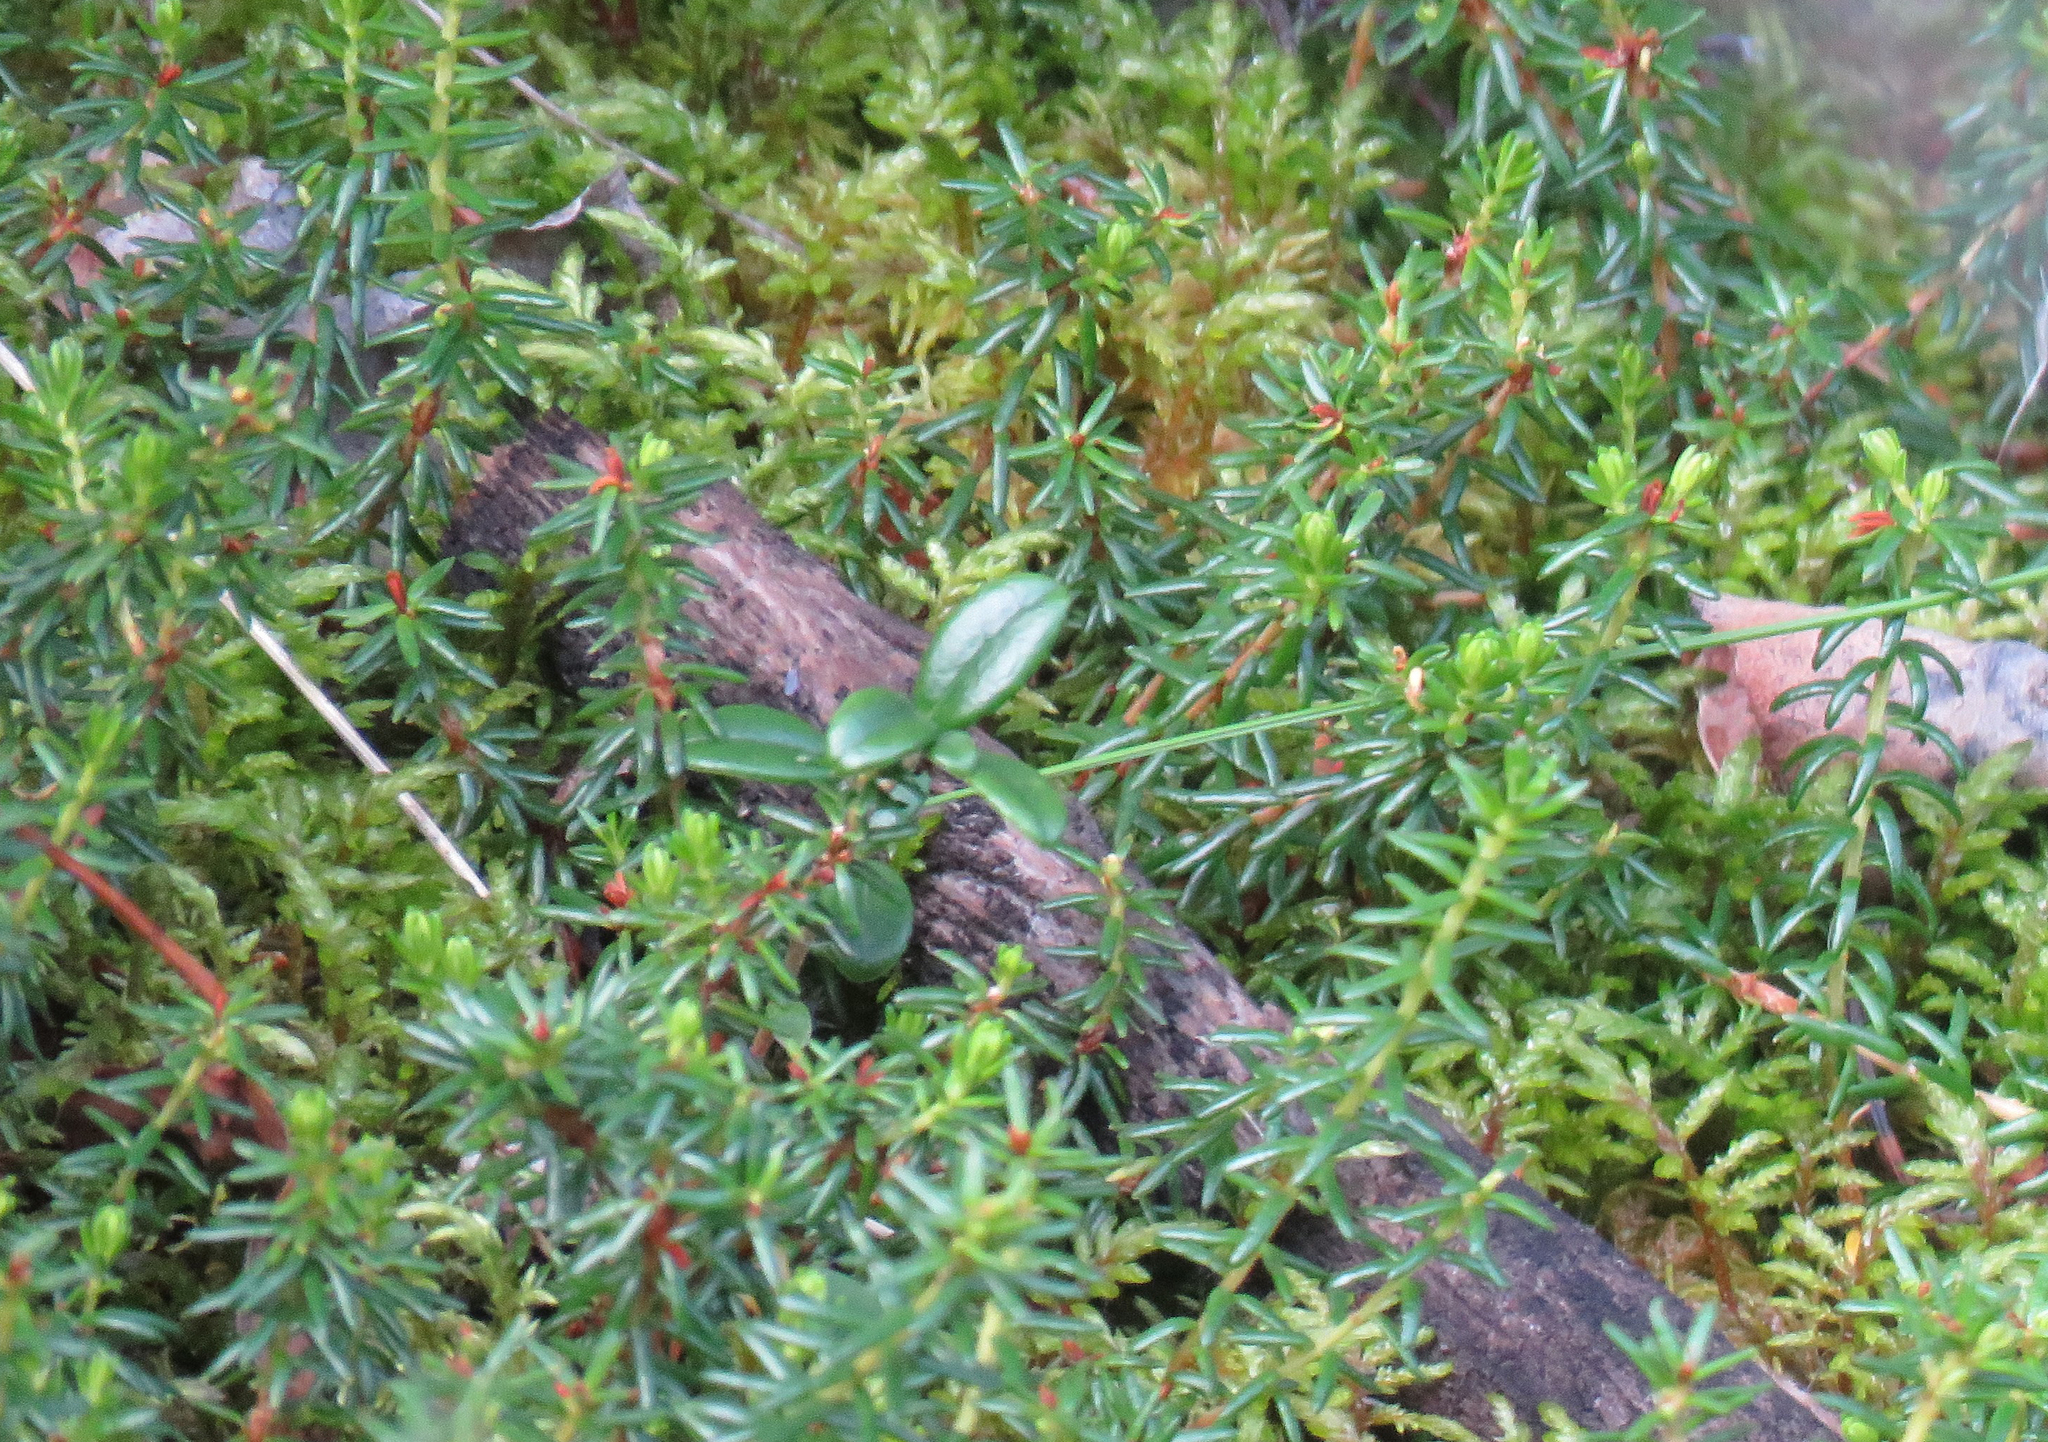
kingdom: Plantae
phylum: Tracheophyta
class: Magnoliopsida
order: Ericales
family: Ericaceae
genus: Empetrum
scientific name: Empetrum nigrum
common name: Black crowberry
